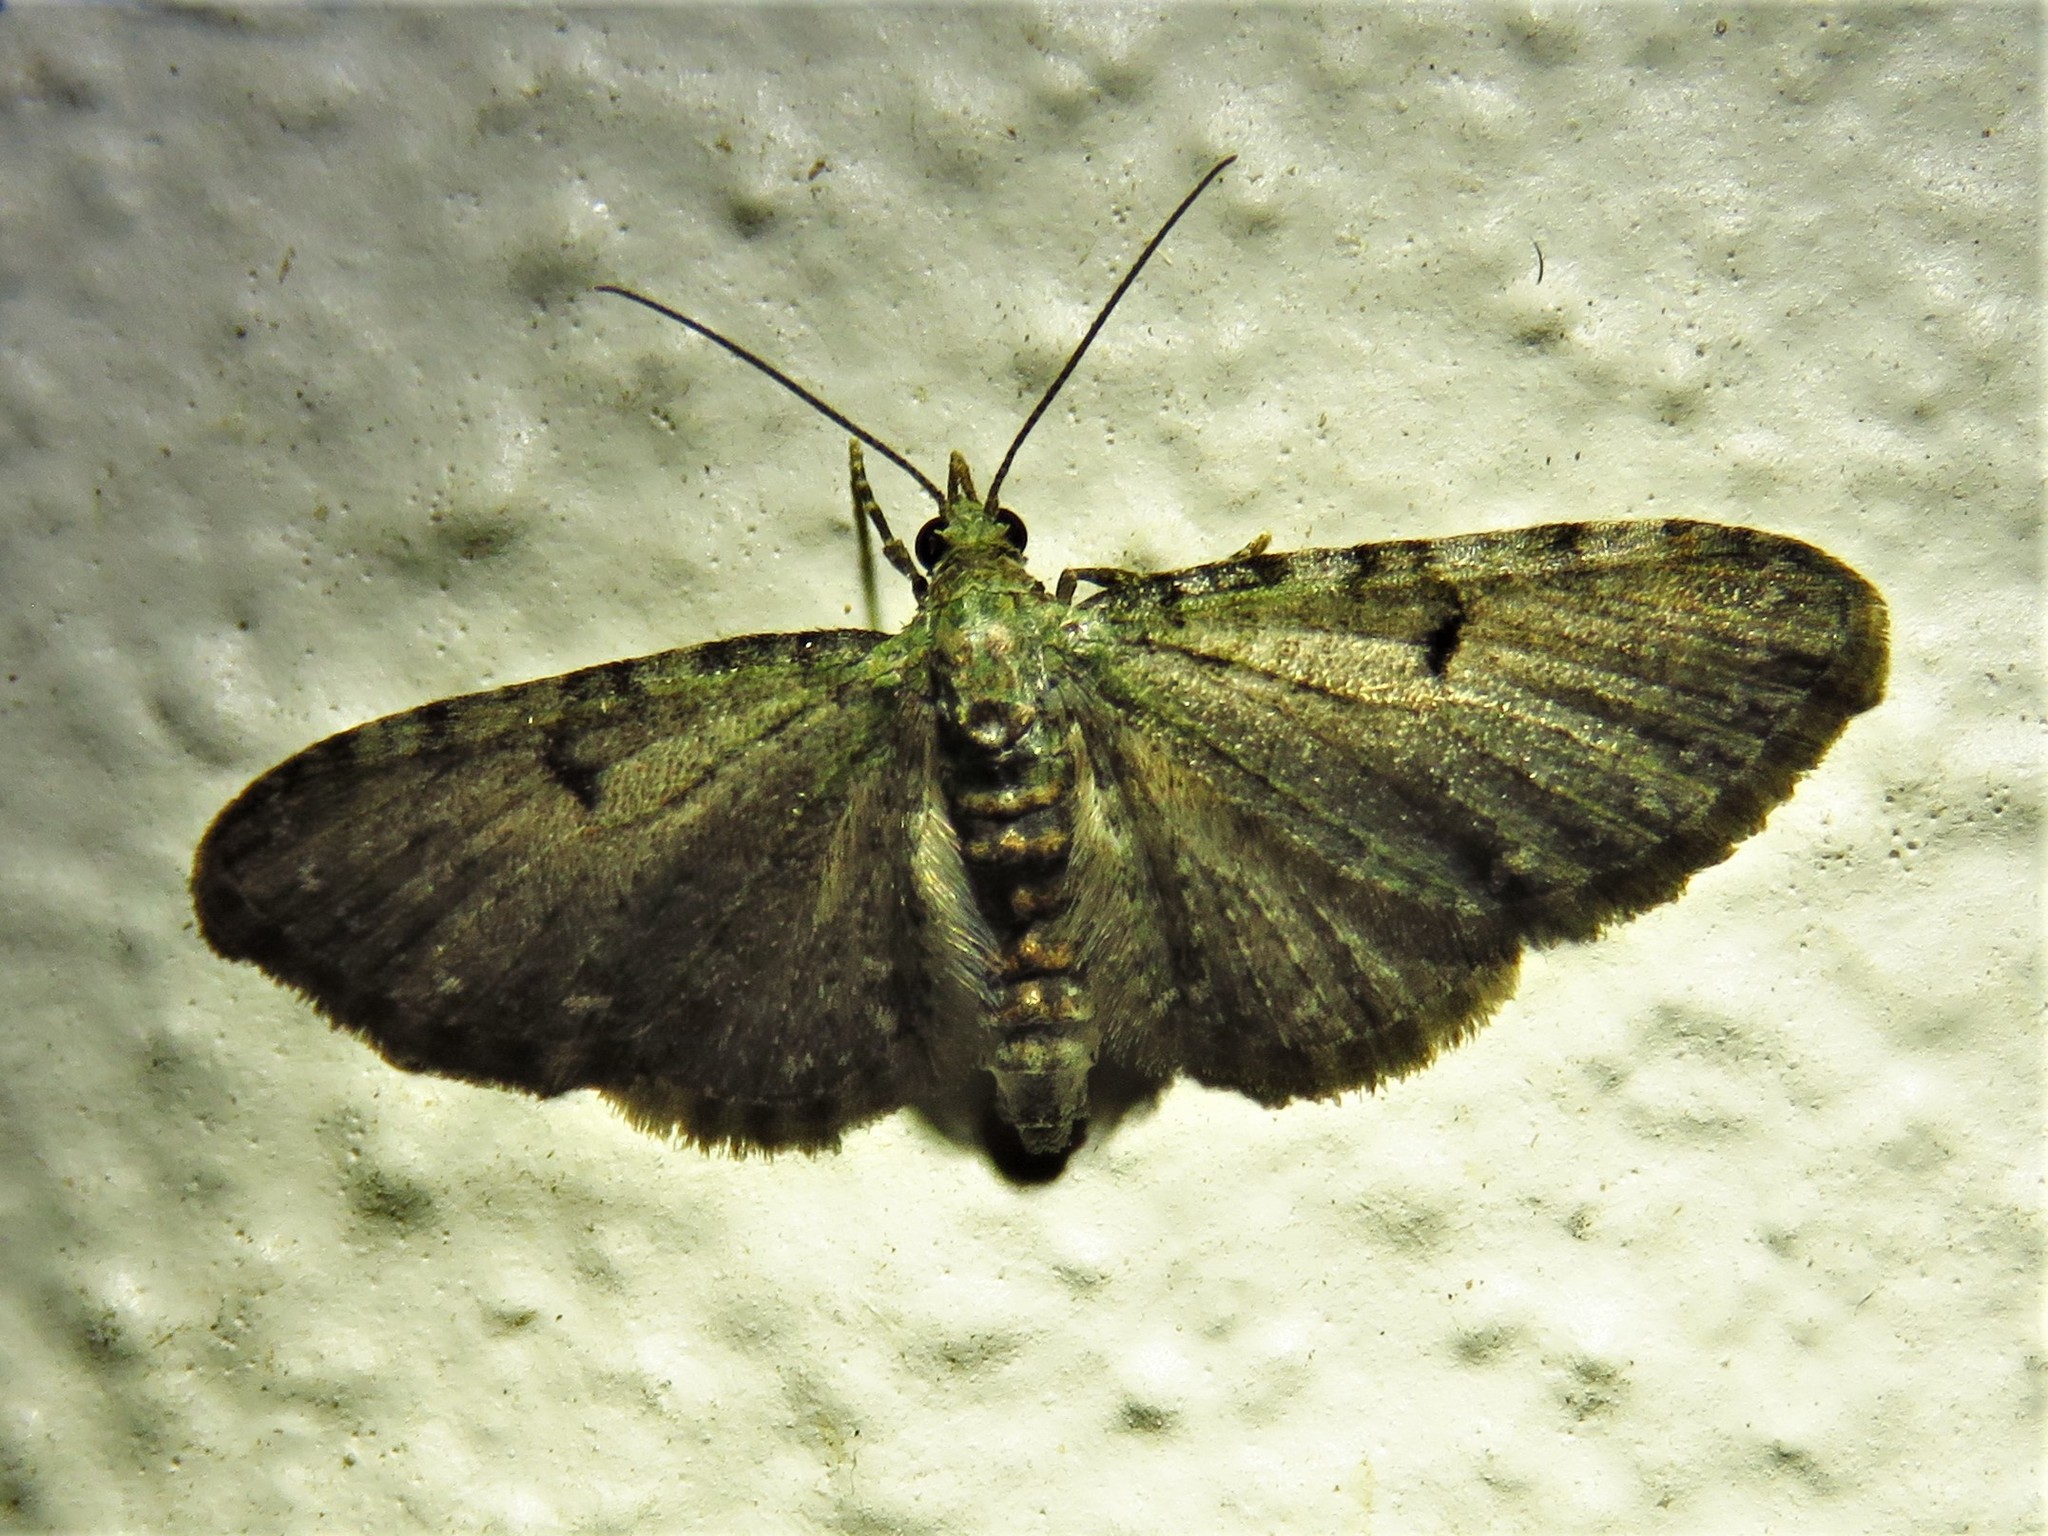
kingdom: Animalia
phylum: Arthropoda
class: Insecta
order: Lepidoptera
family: Geometridae
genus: Eupithecia
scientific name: Eupithecia miserulata
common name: Common eupithecia
